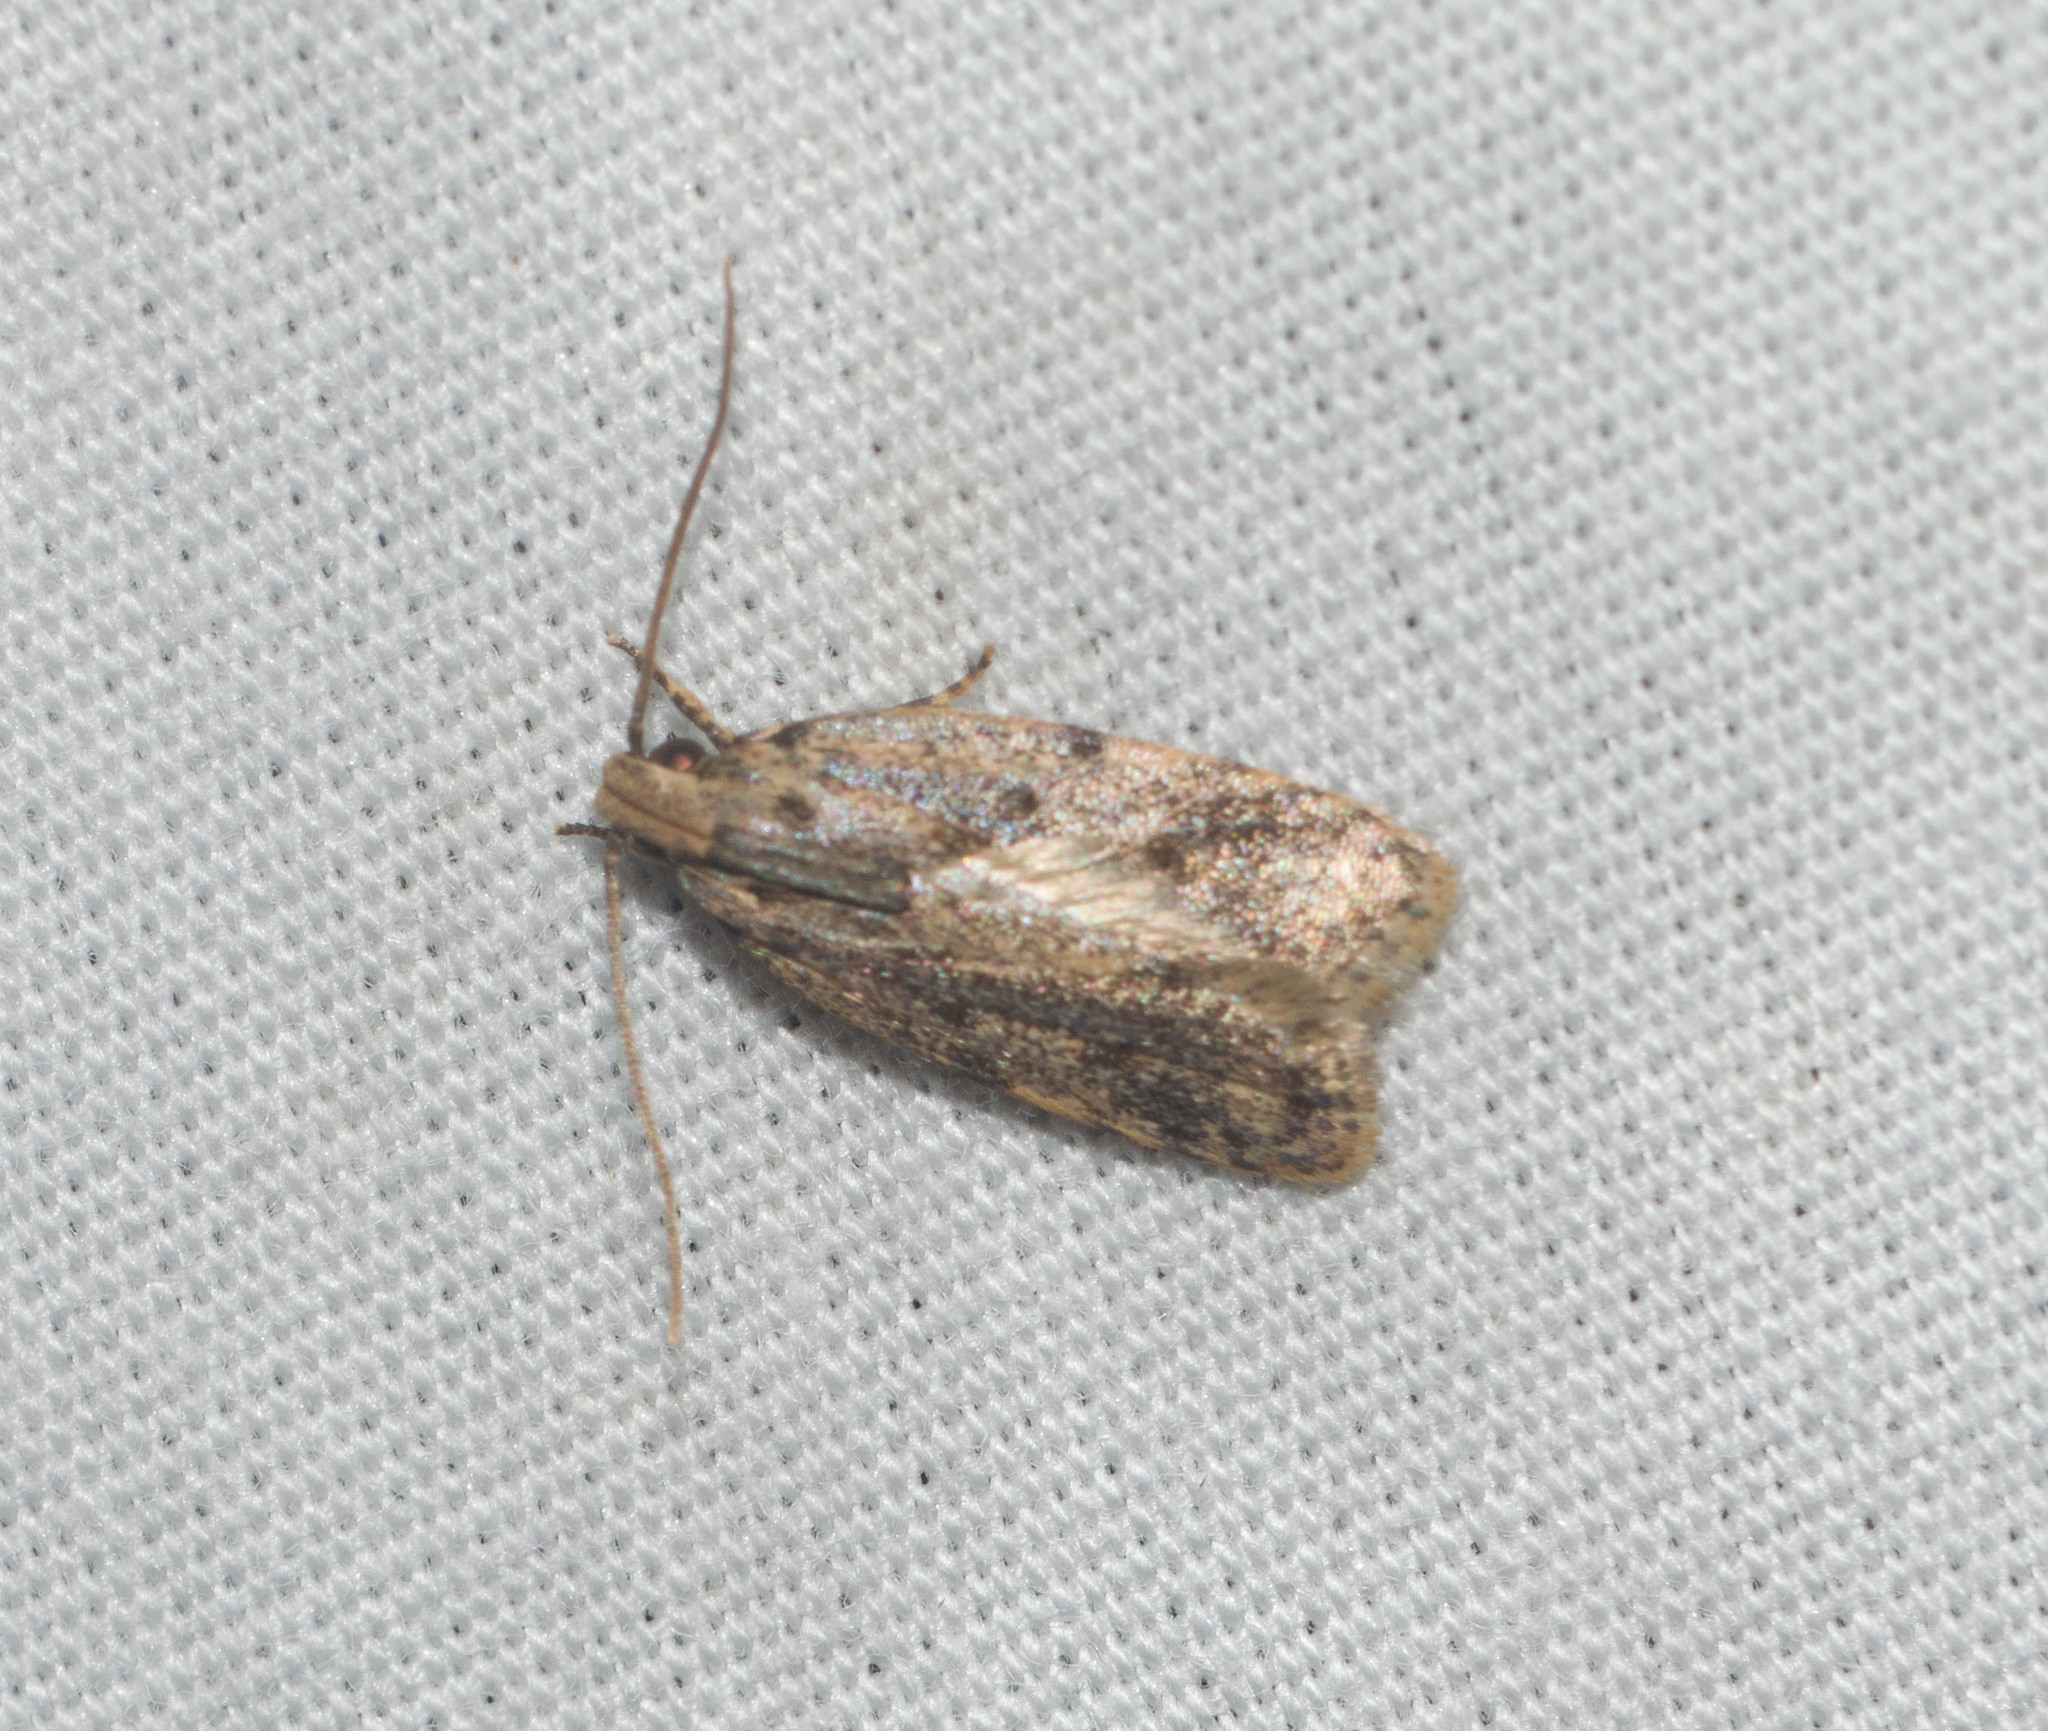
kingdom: Animalia
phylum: Arthropoda
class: Insecta
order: Lepidoptera
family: Autostichidae
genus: Stoeberhinus
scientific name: Stoeberhinus testaceus
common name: Moth
